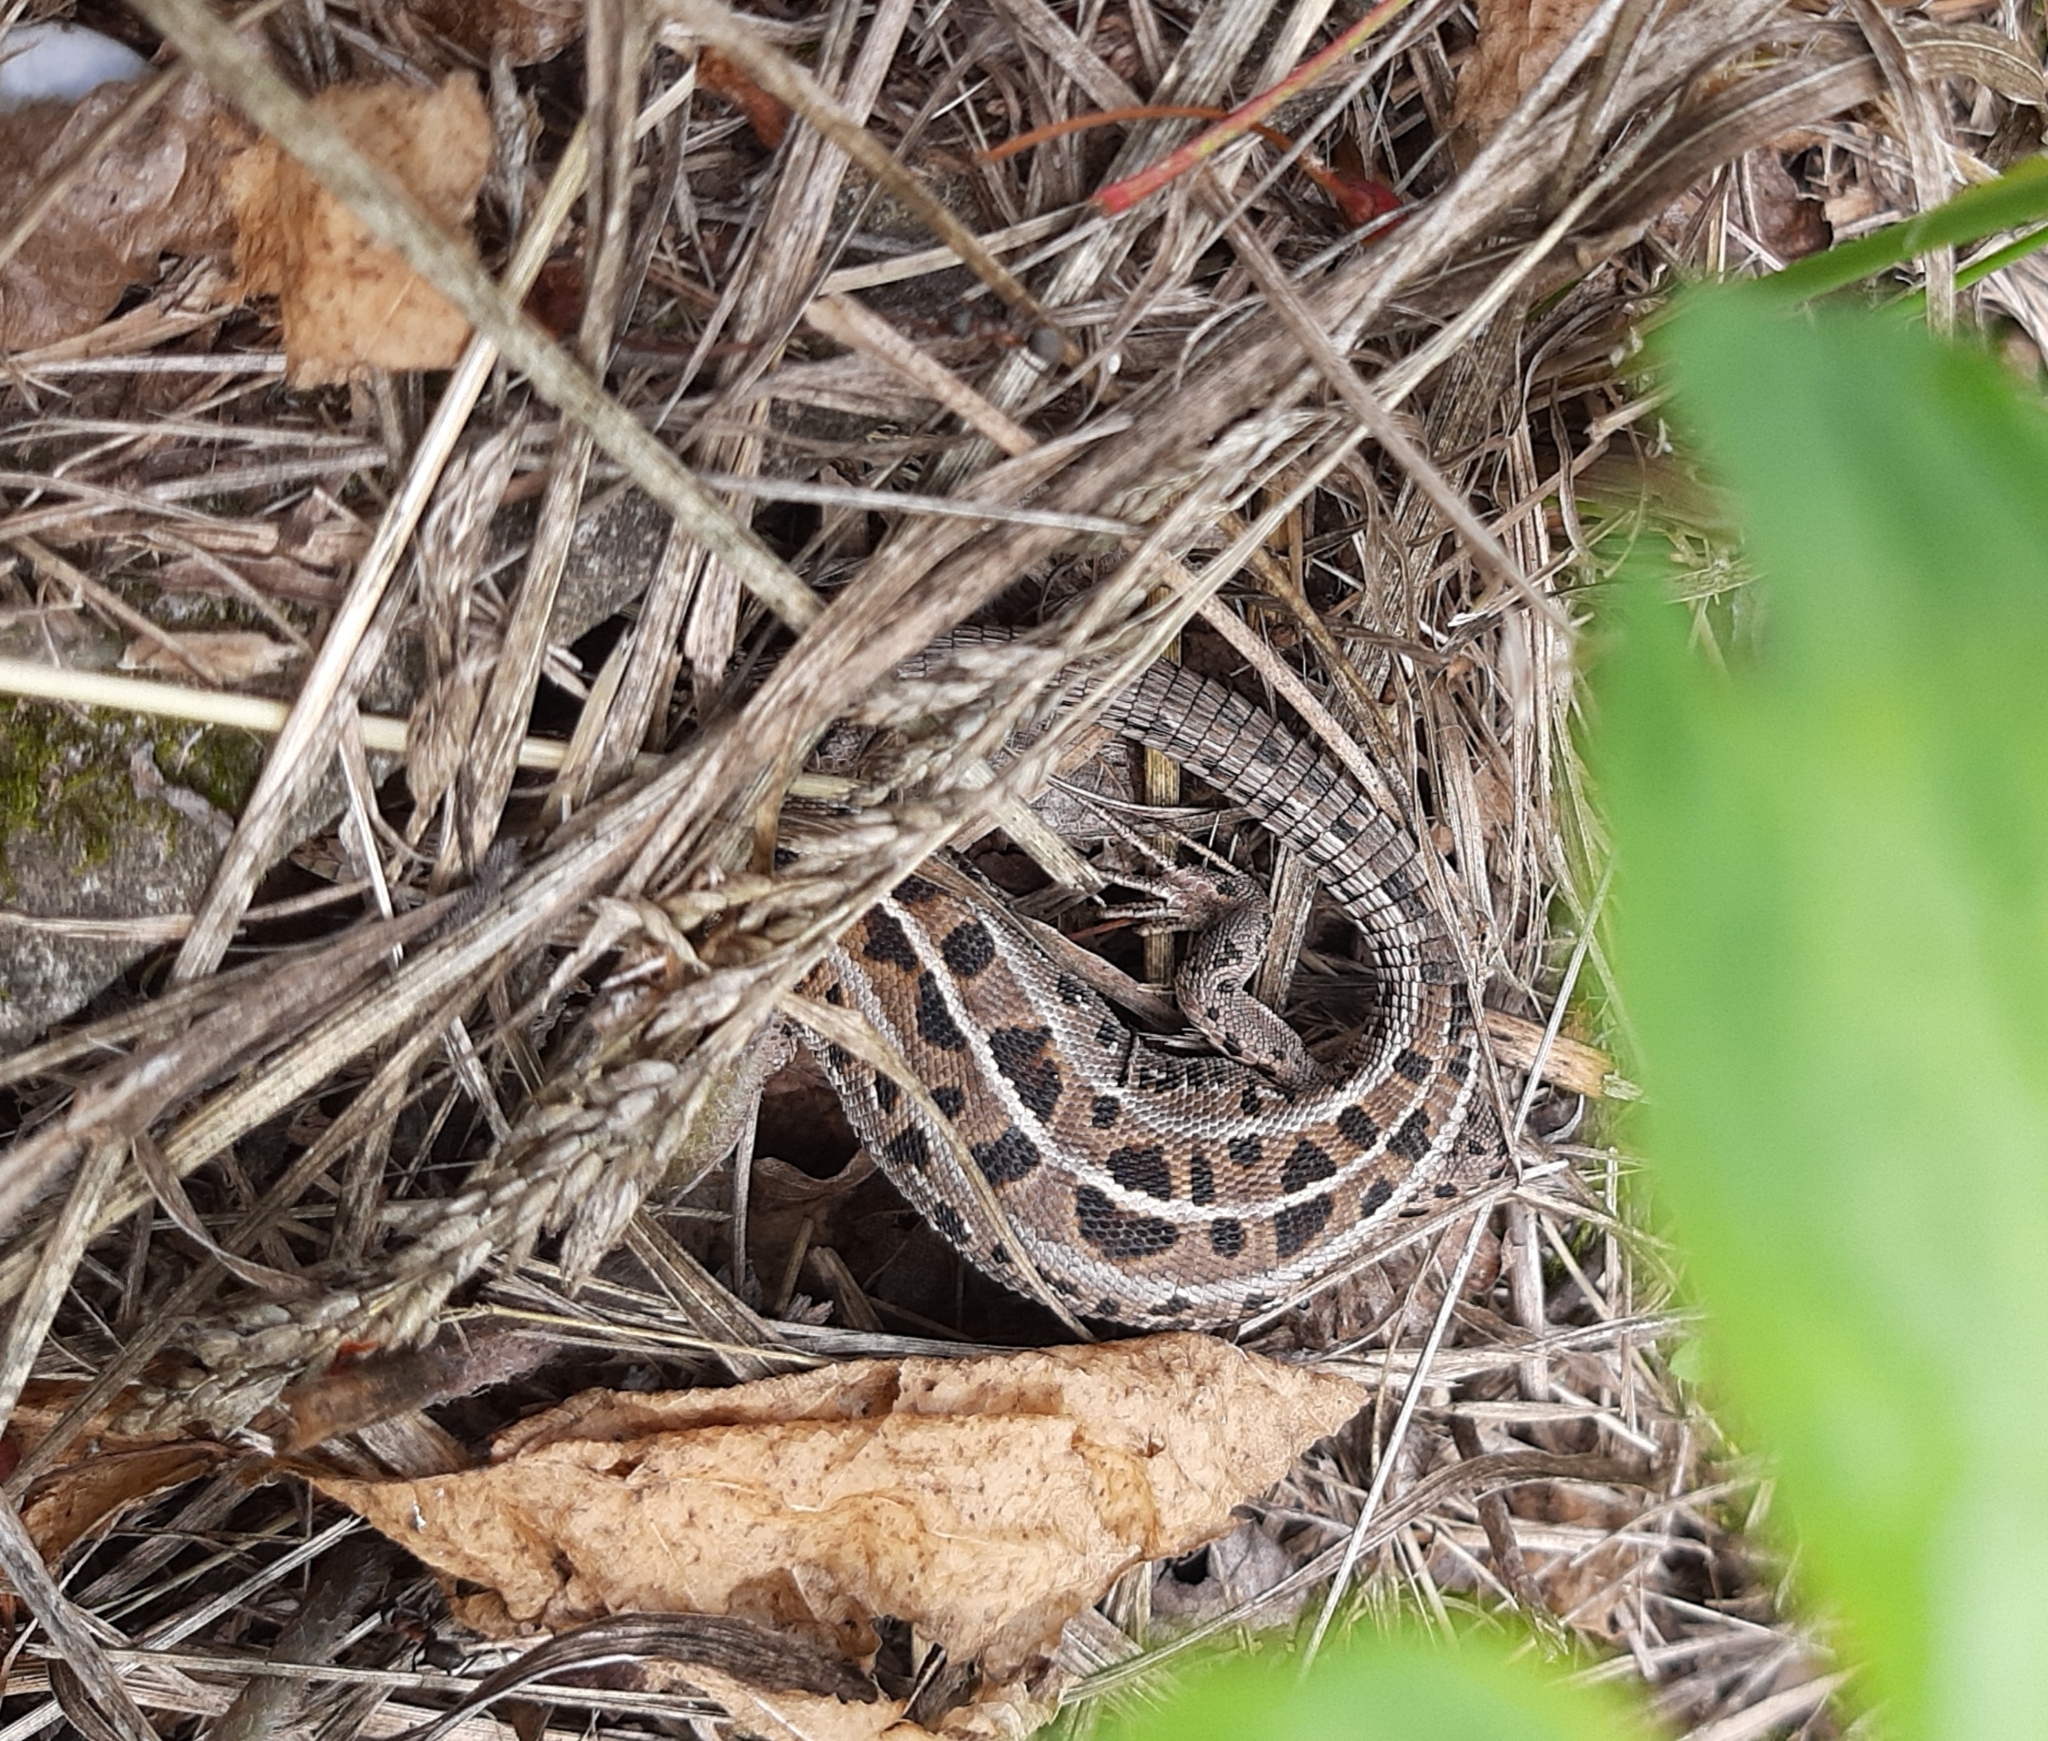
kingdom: Animalia
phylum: Chordata
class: Squamata
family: Lacertidae
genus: Lacerta
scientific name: Lacerta agilis
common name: Sand lizard
